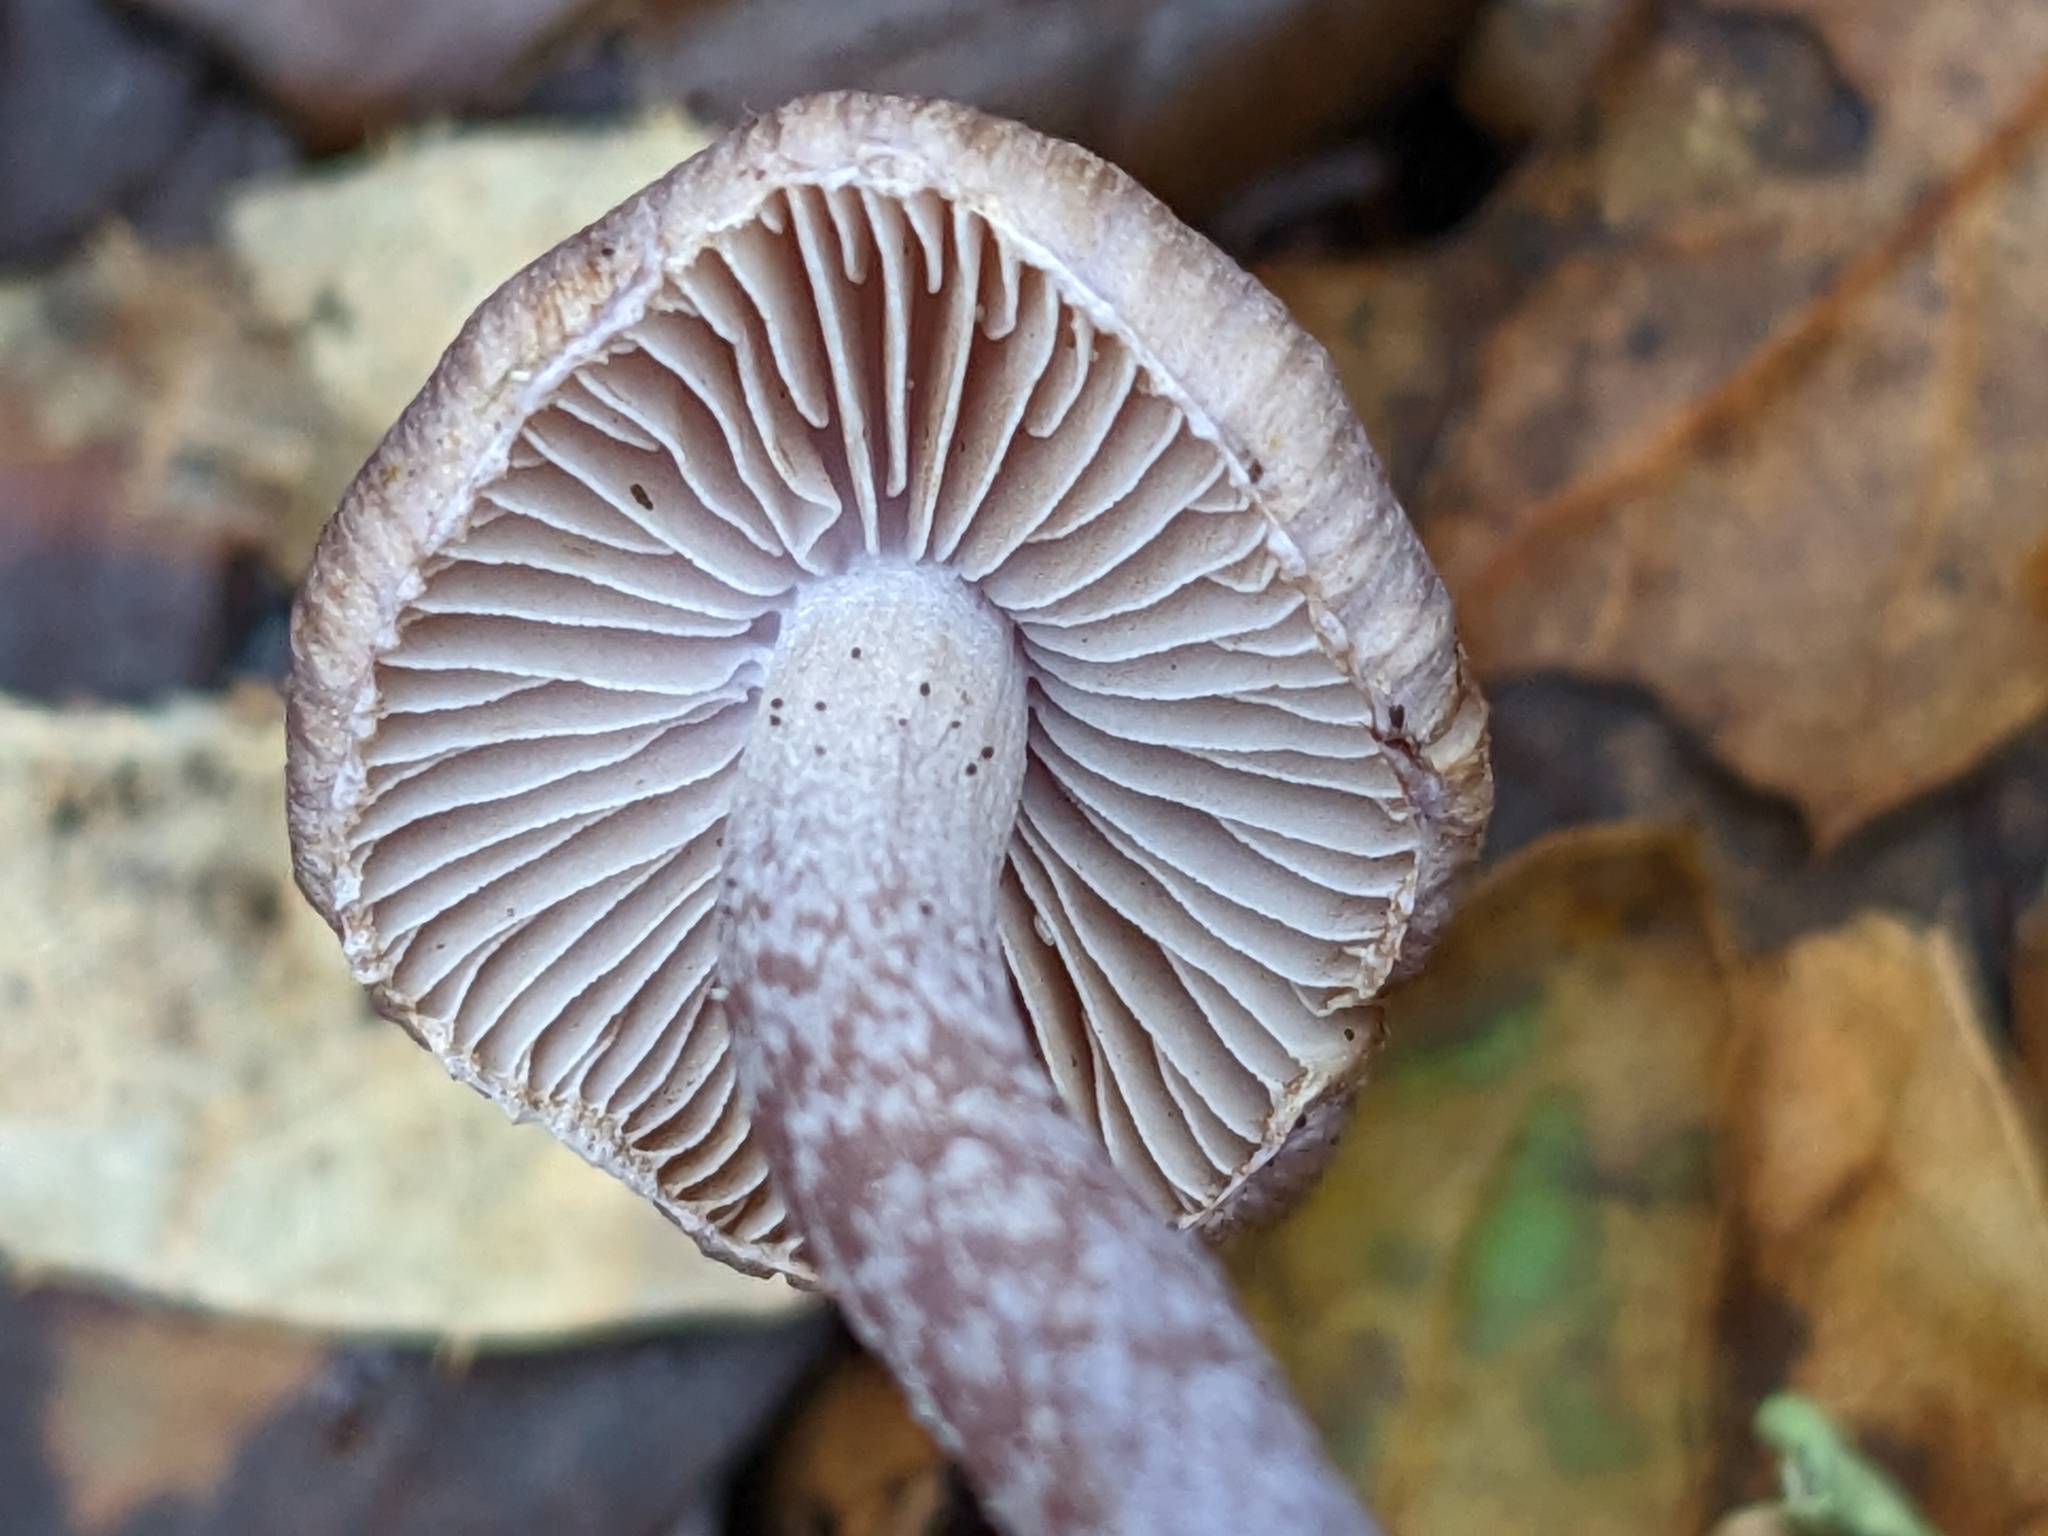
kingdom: Fungi
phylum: Basidiomycota
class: Agaricomycetes
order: Agaricales
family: Inocybaceae
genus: Inocybe
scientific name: Inocybe geophylla
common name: White fibrecap
